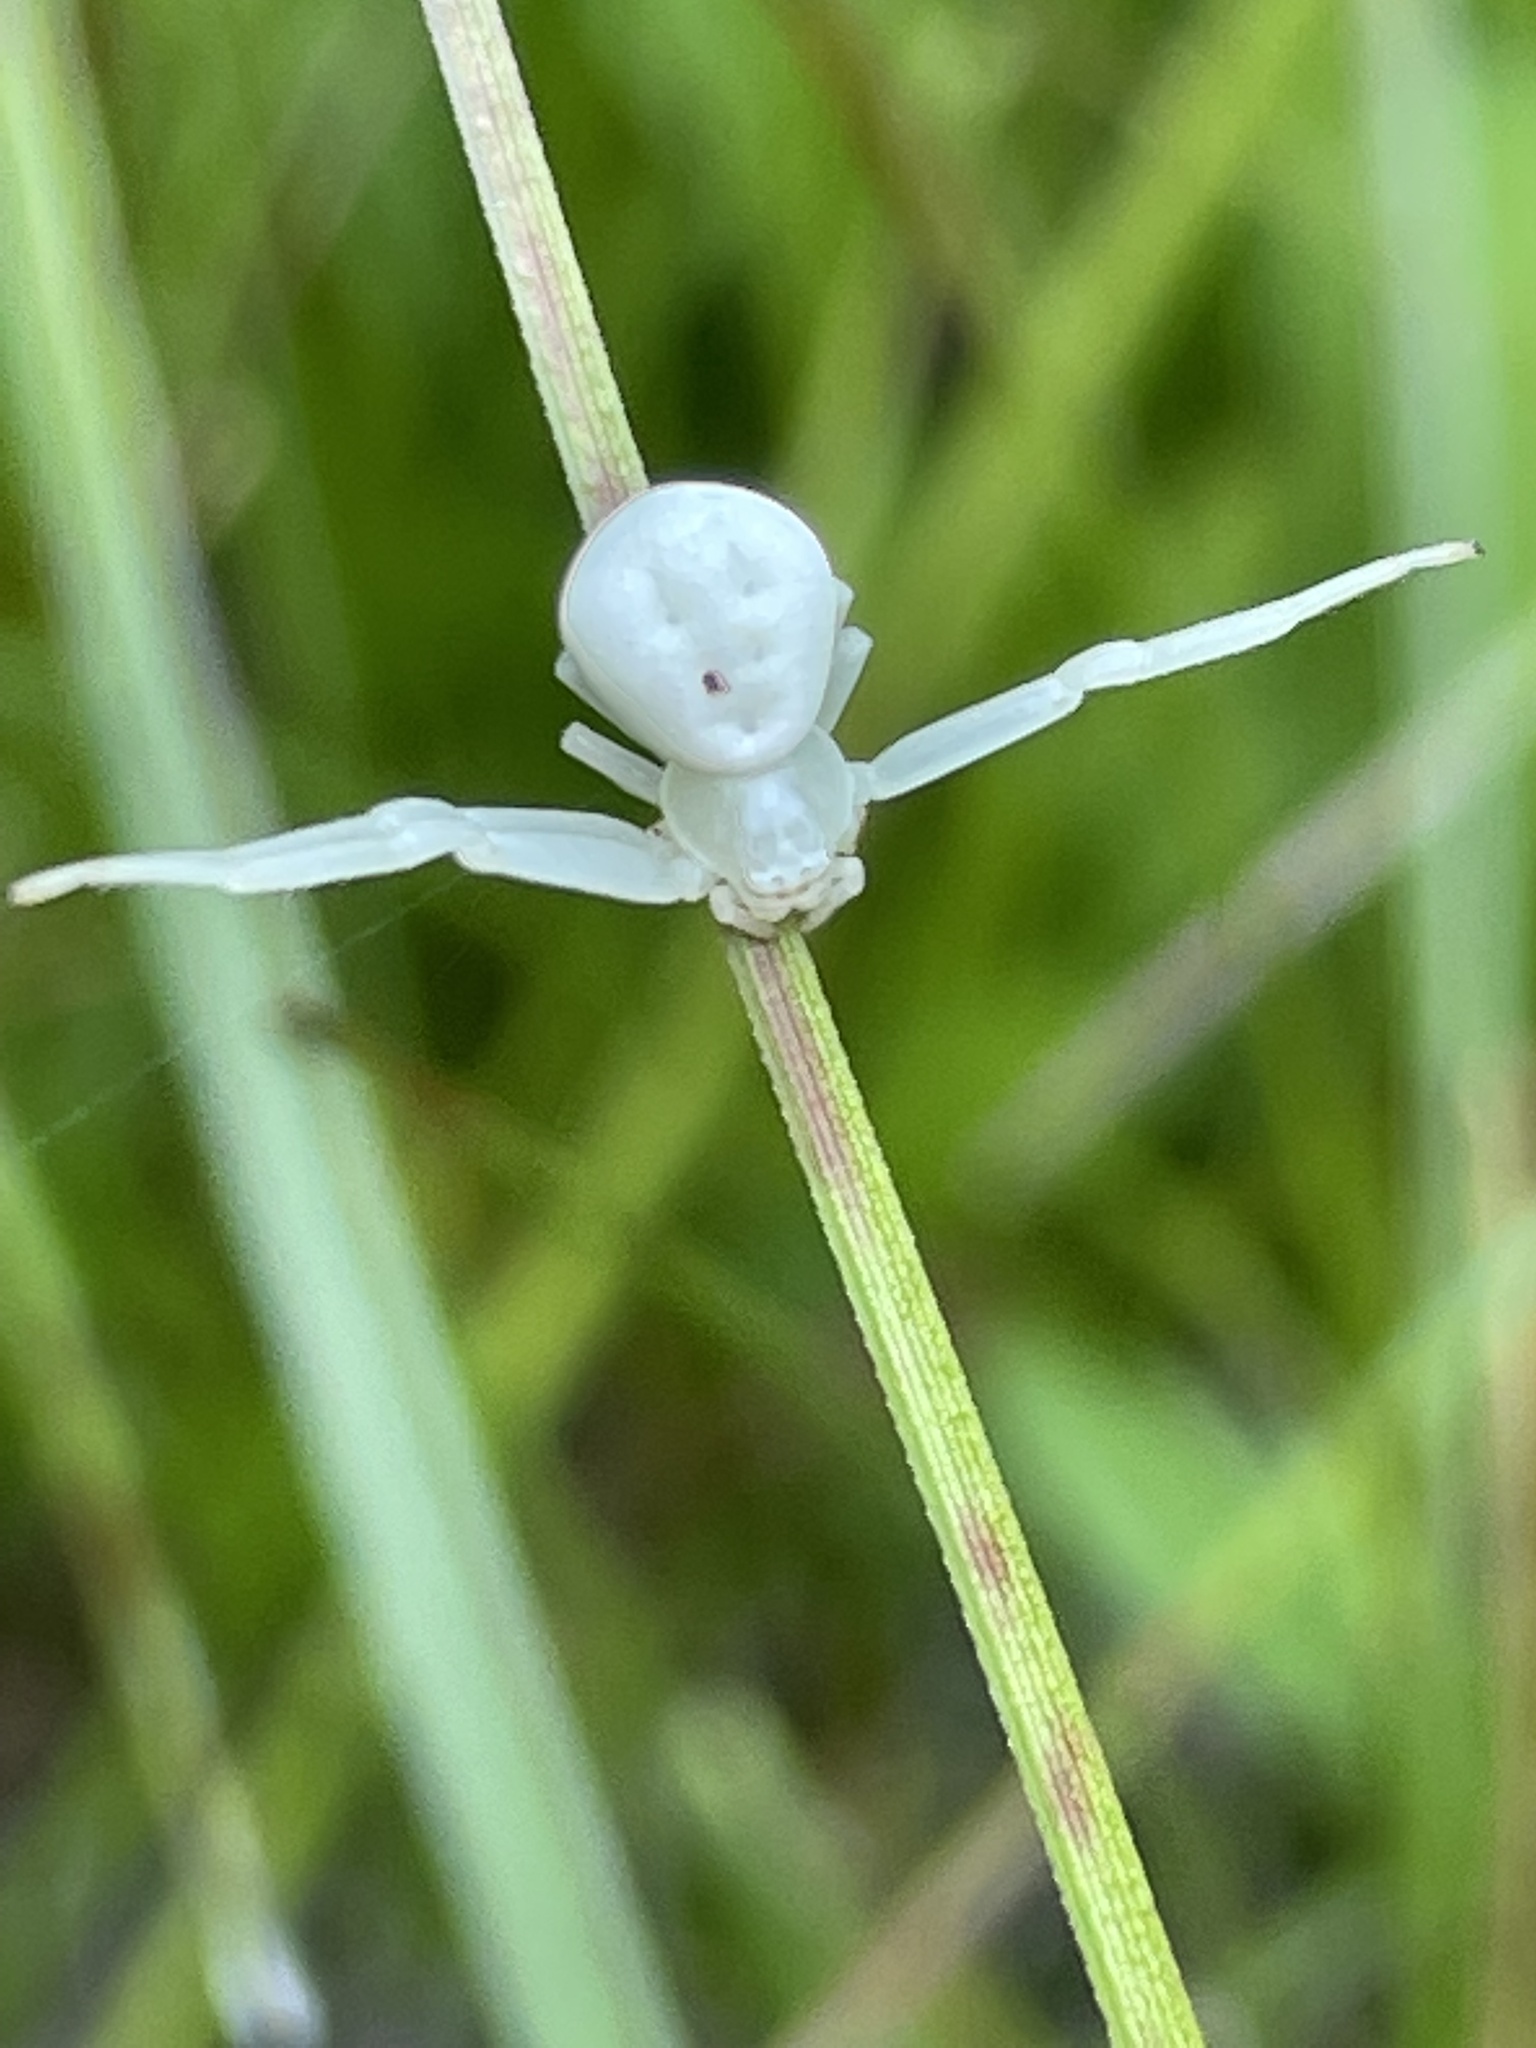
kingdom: Animalia
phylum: Arthropoda
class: Arachnida
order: Araneae
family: Thomisidae
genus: Misumena
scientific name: Misumena vatia
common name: Goldenrod crab spider
